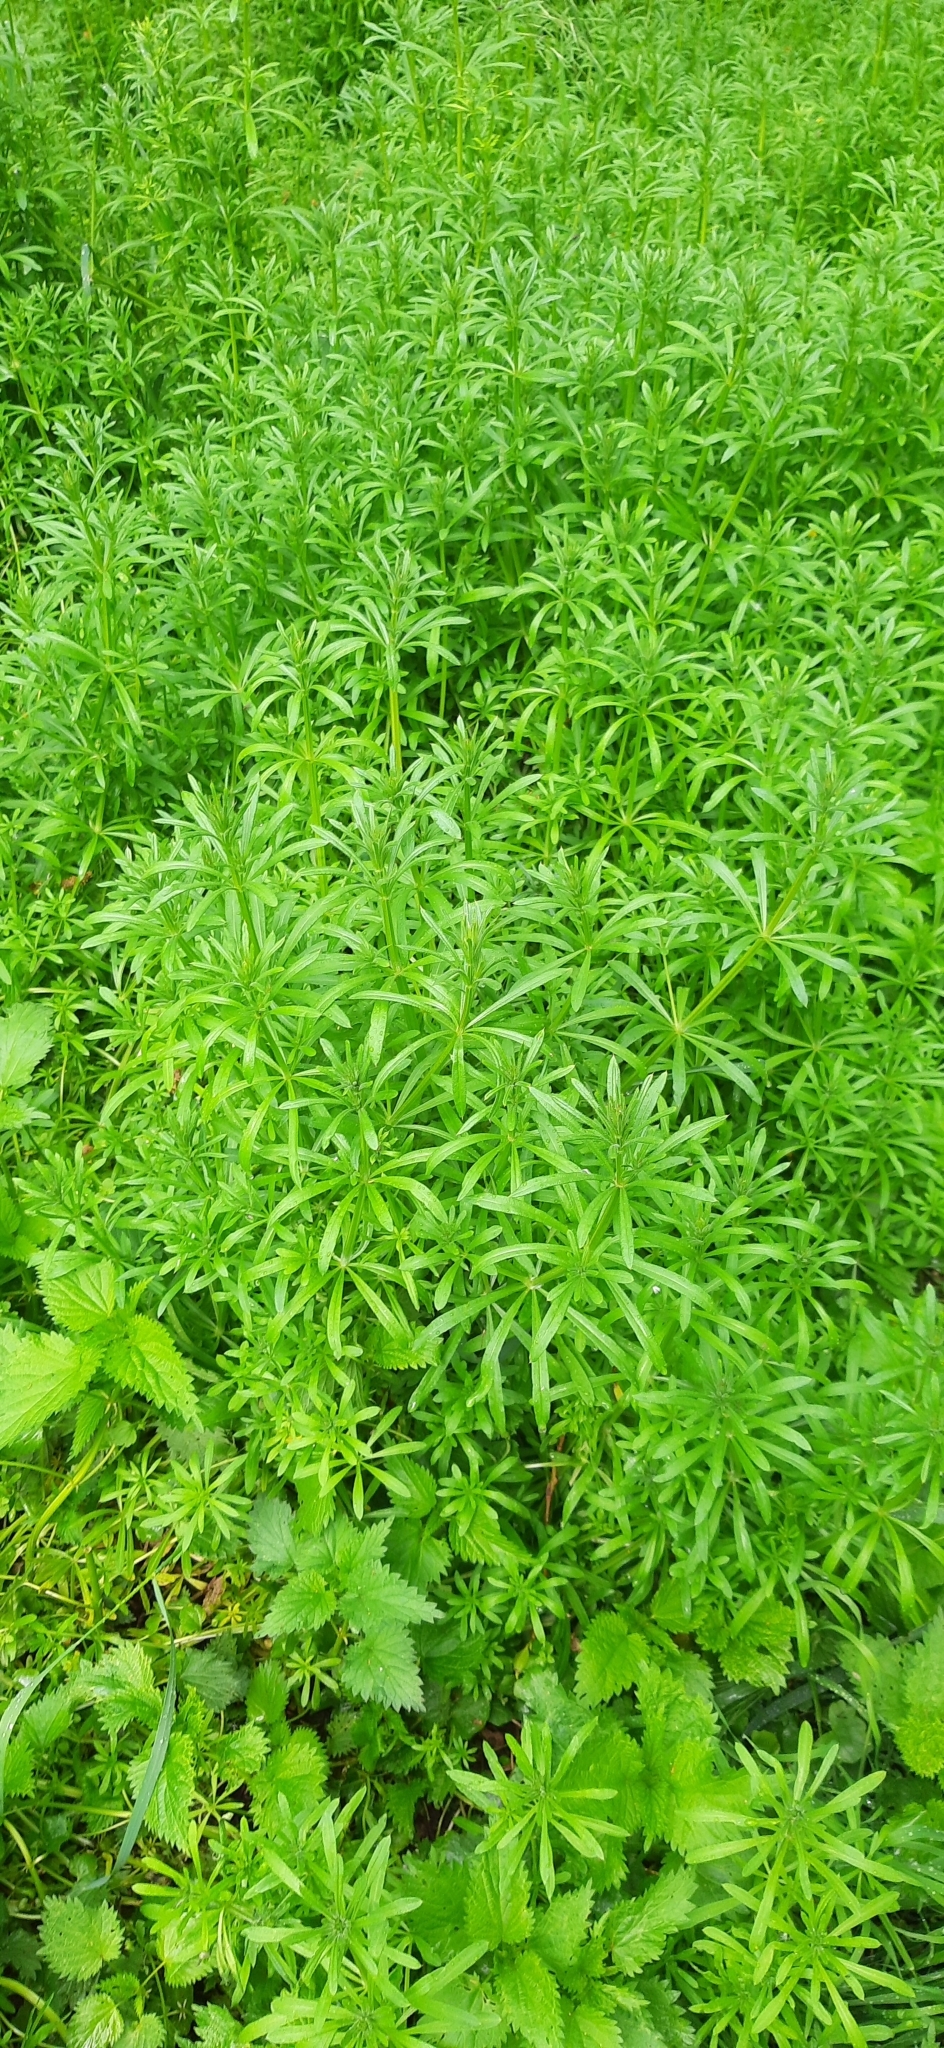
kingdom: Plantae
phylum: Tracheophyta
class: Magnoliopsida
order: Gentianales
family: Rubiaceae
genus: Galium
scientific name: Galium aparine
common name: Cleavers
